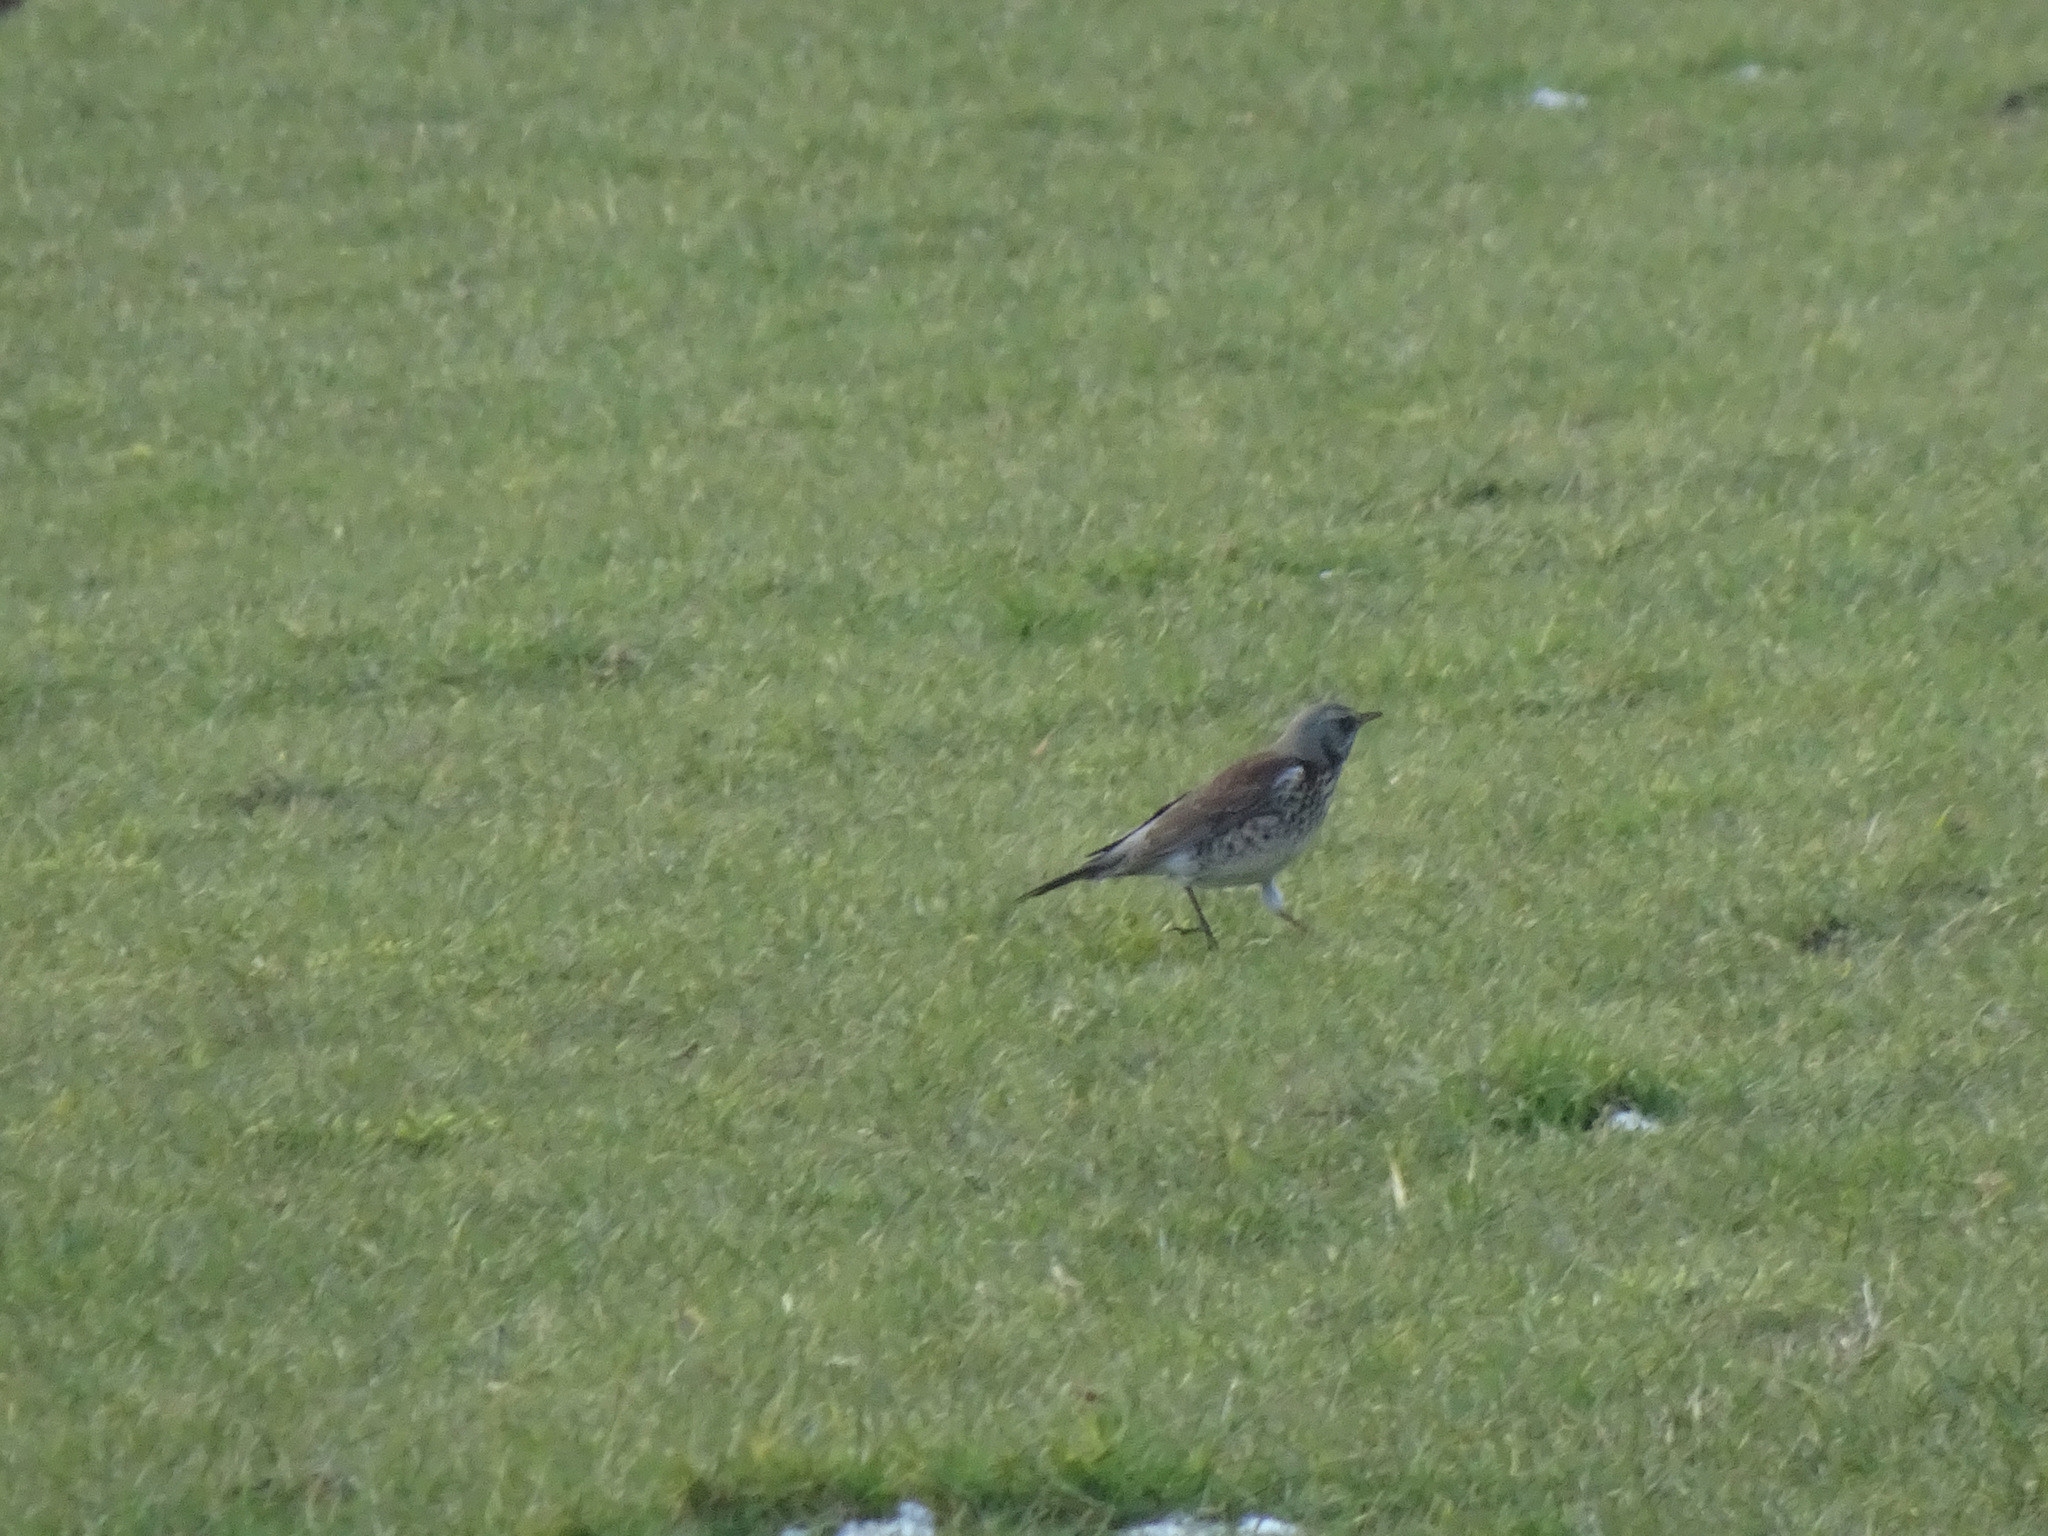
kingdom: Animalia
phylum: Chordata
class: Aves
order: Passeriformes
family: Turdidae
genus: Turdus
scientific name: Turdus pilaris
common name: Fieldfare
